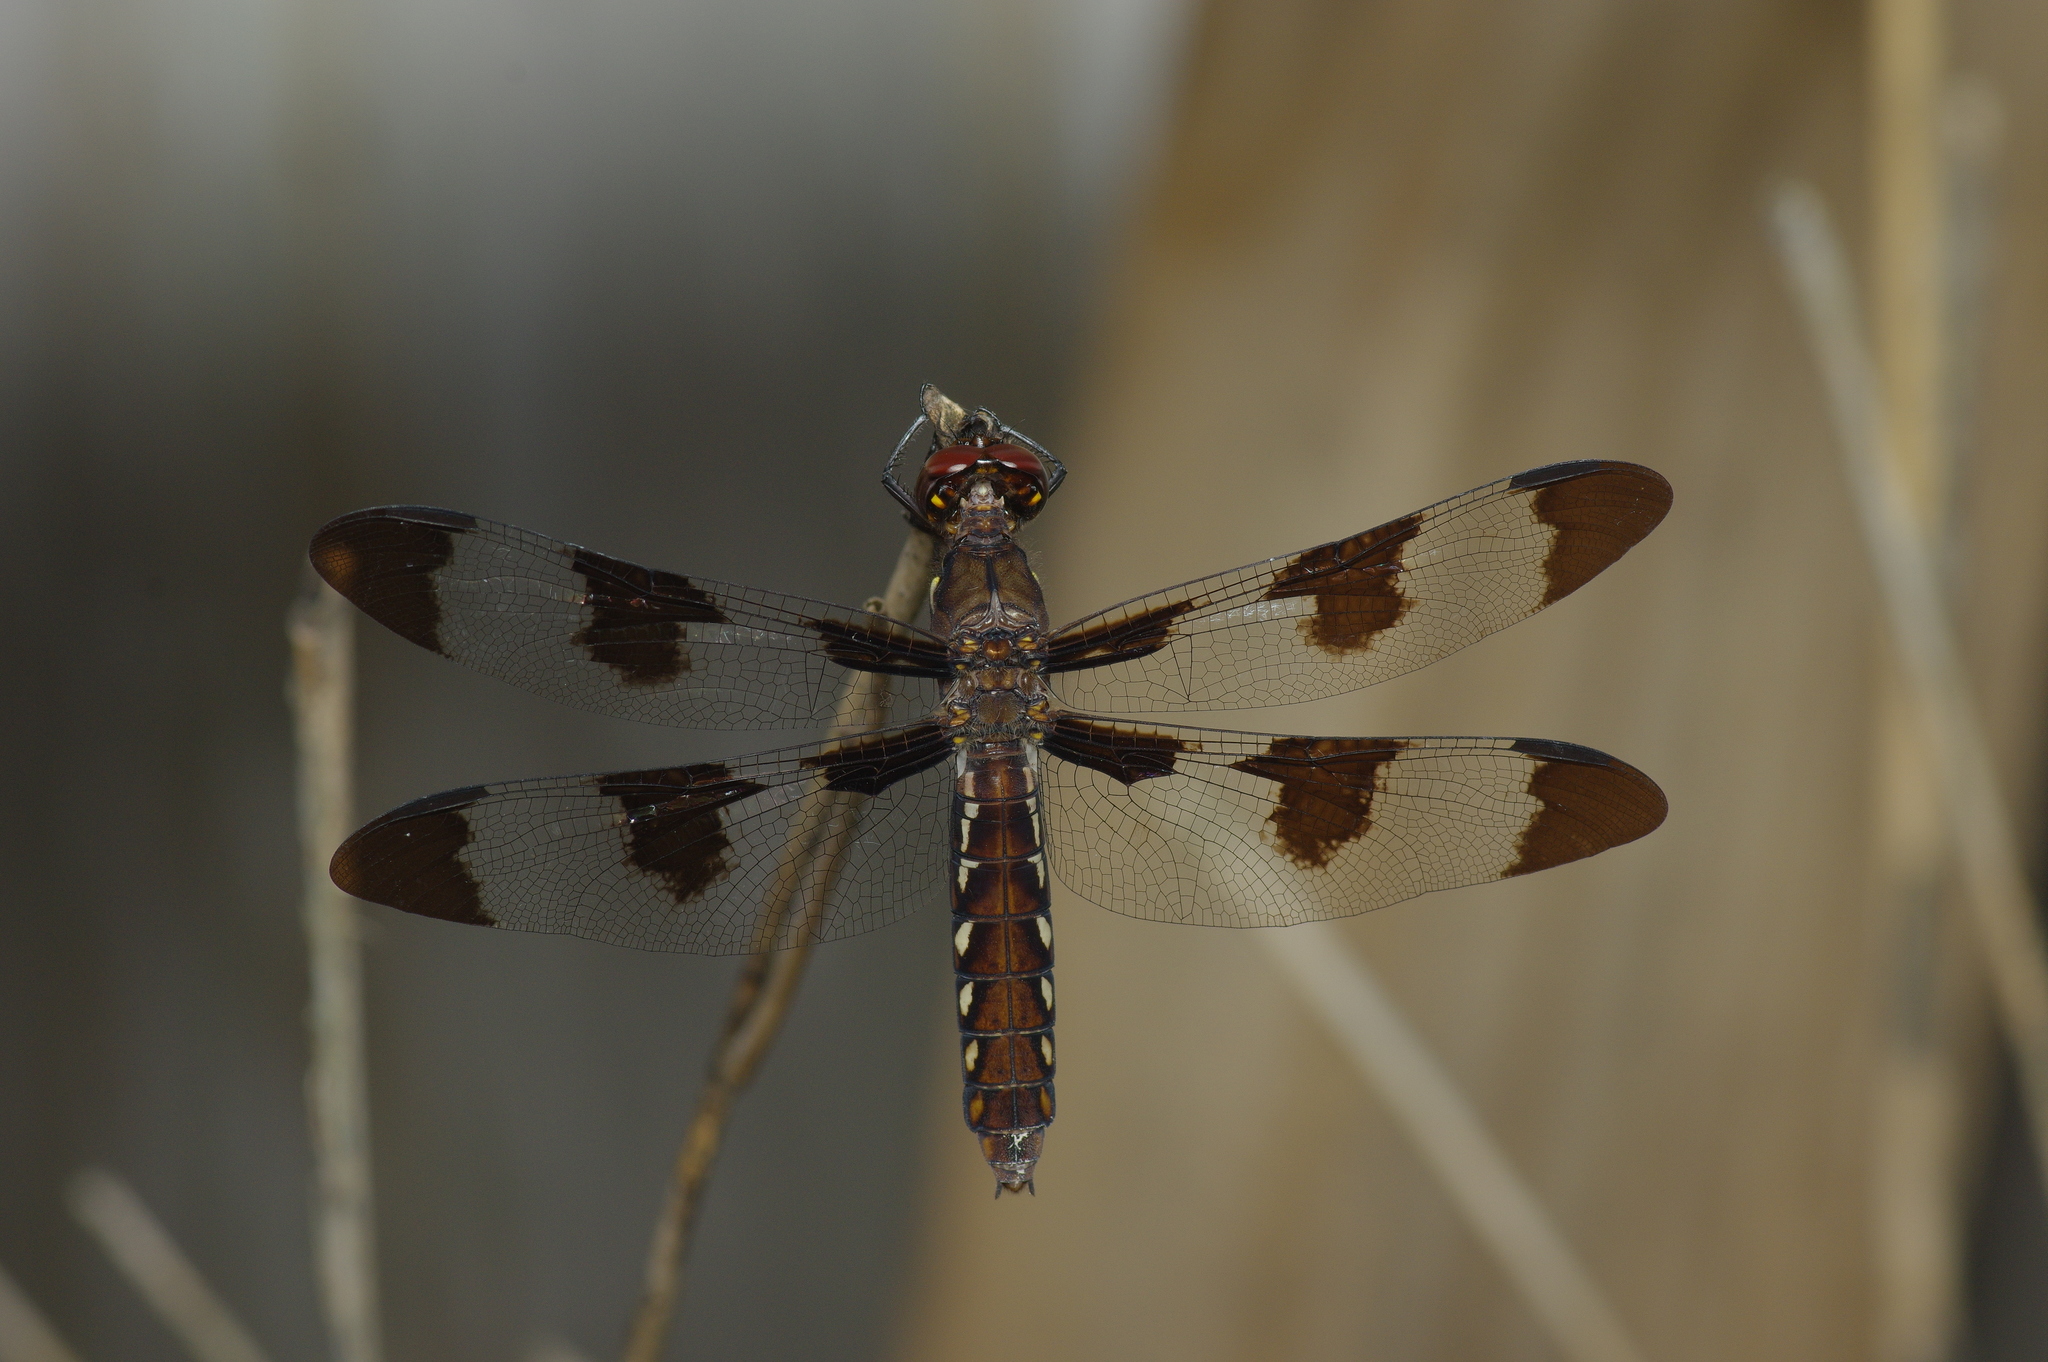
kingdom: Animalia
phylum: Arthropoda
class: Insecta
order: Odonata
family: Libellulidae
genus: Plathemis
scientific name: Plathemis lydia
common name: Common whitetail
